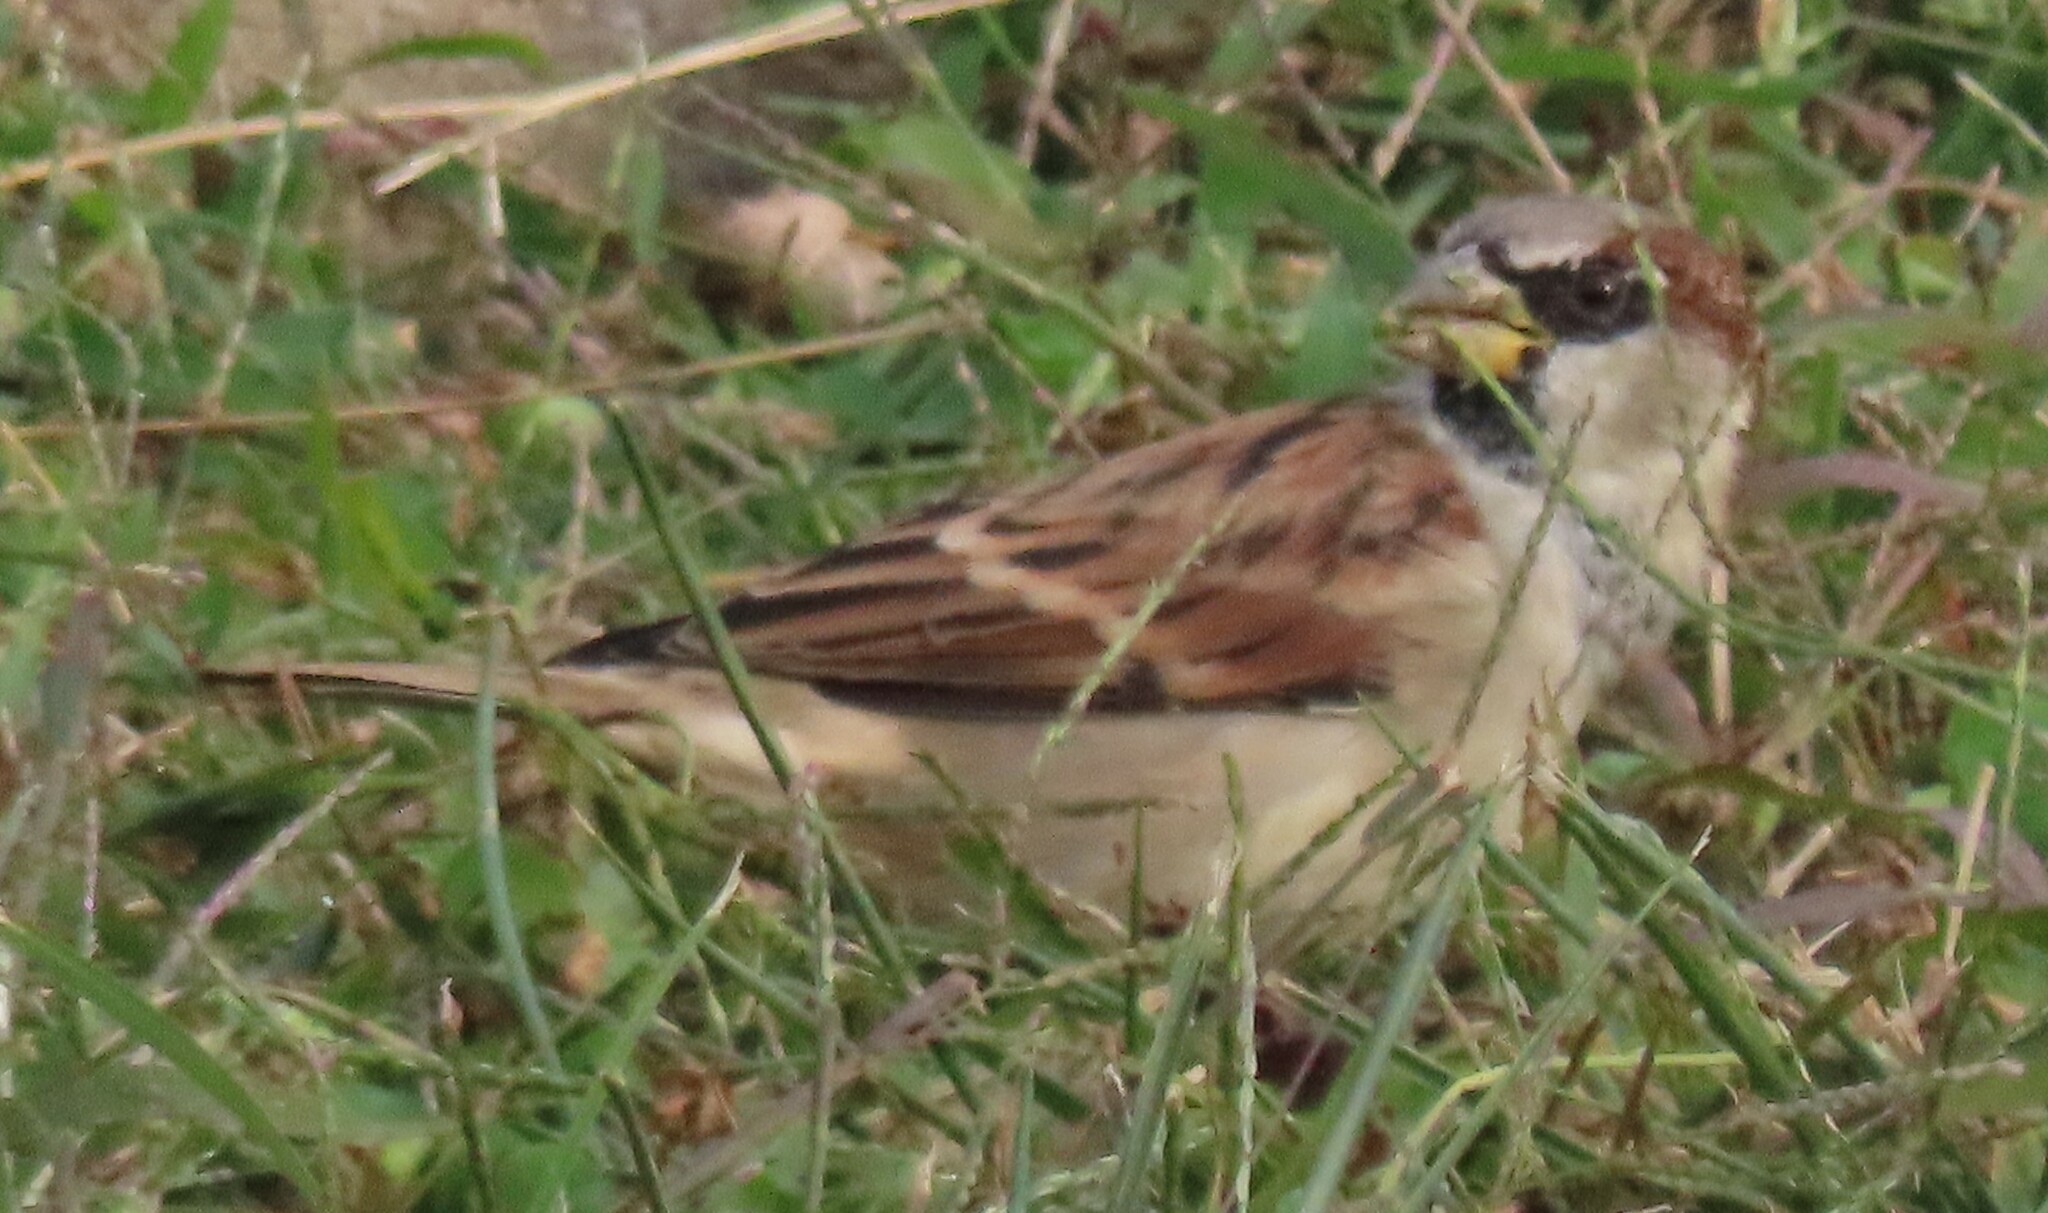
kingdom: Animalia
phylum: Chordata
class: Aves
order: Passeriformes
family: Passeridae
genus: Passer
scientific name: Passer domesticus
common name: House sparrow
